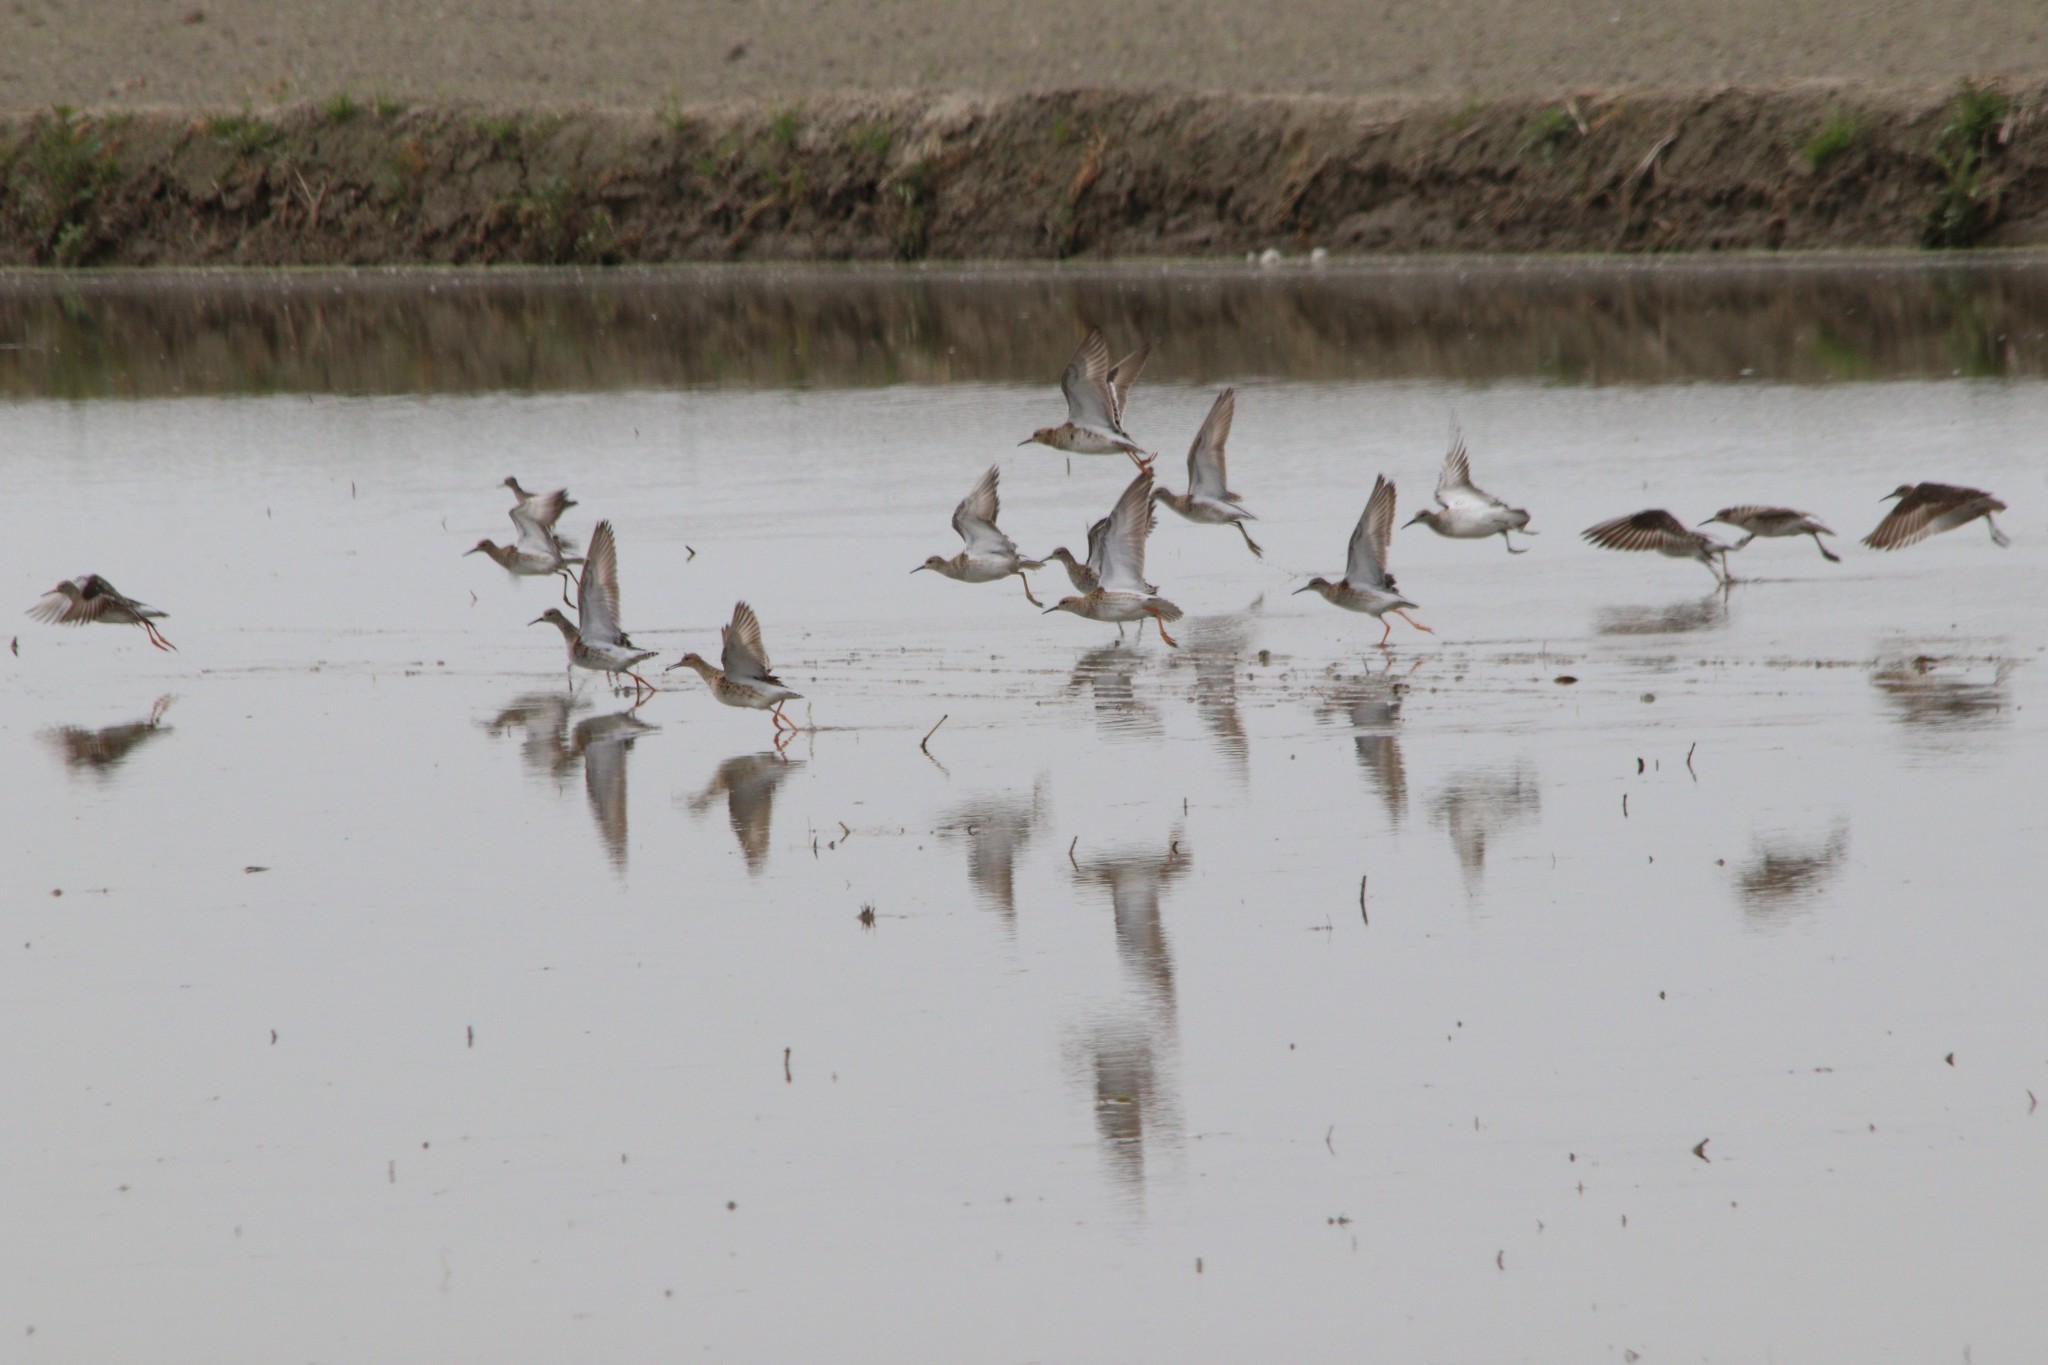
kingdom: Animalia
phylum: Chordata
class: Aves
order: Charadriiformes
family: Scolopacidae
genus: Calidris
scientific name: Calidris pugnax
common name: Ruff
